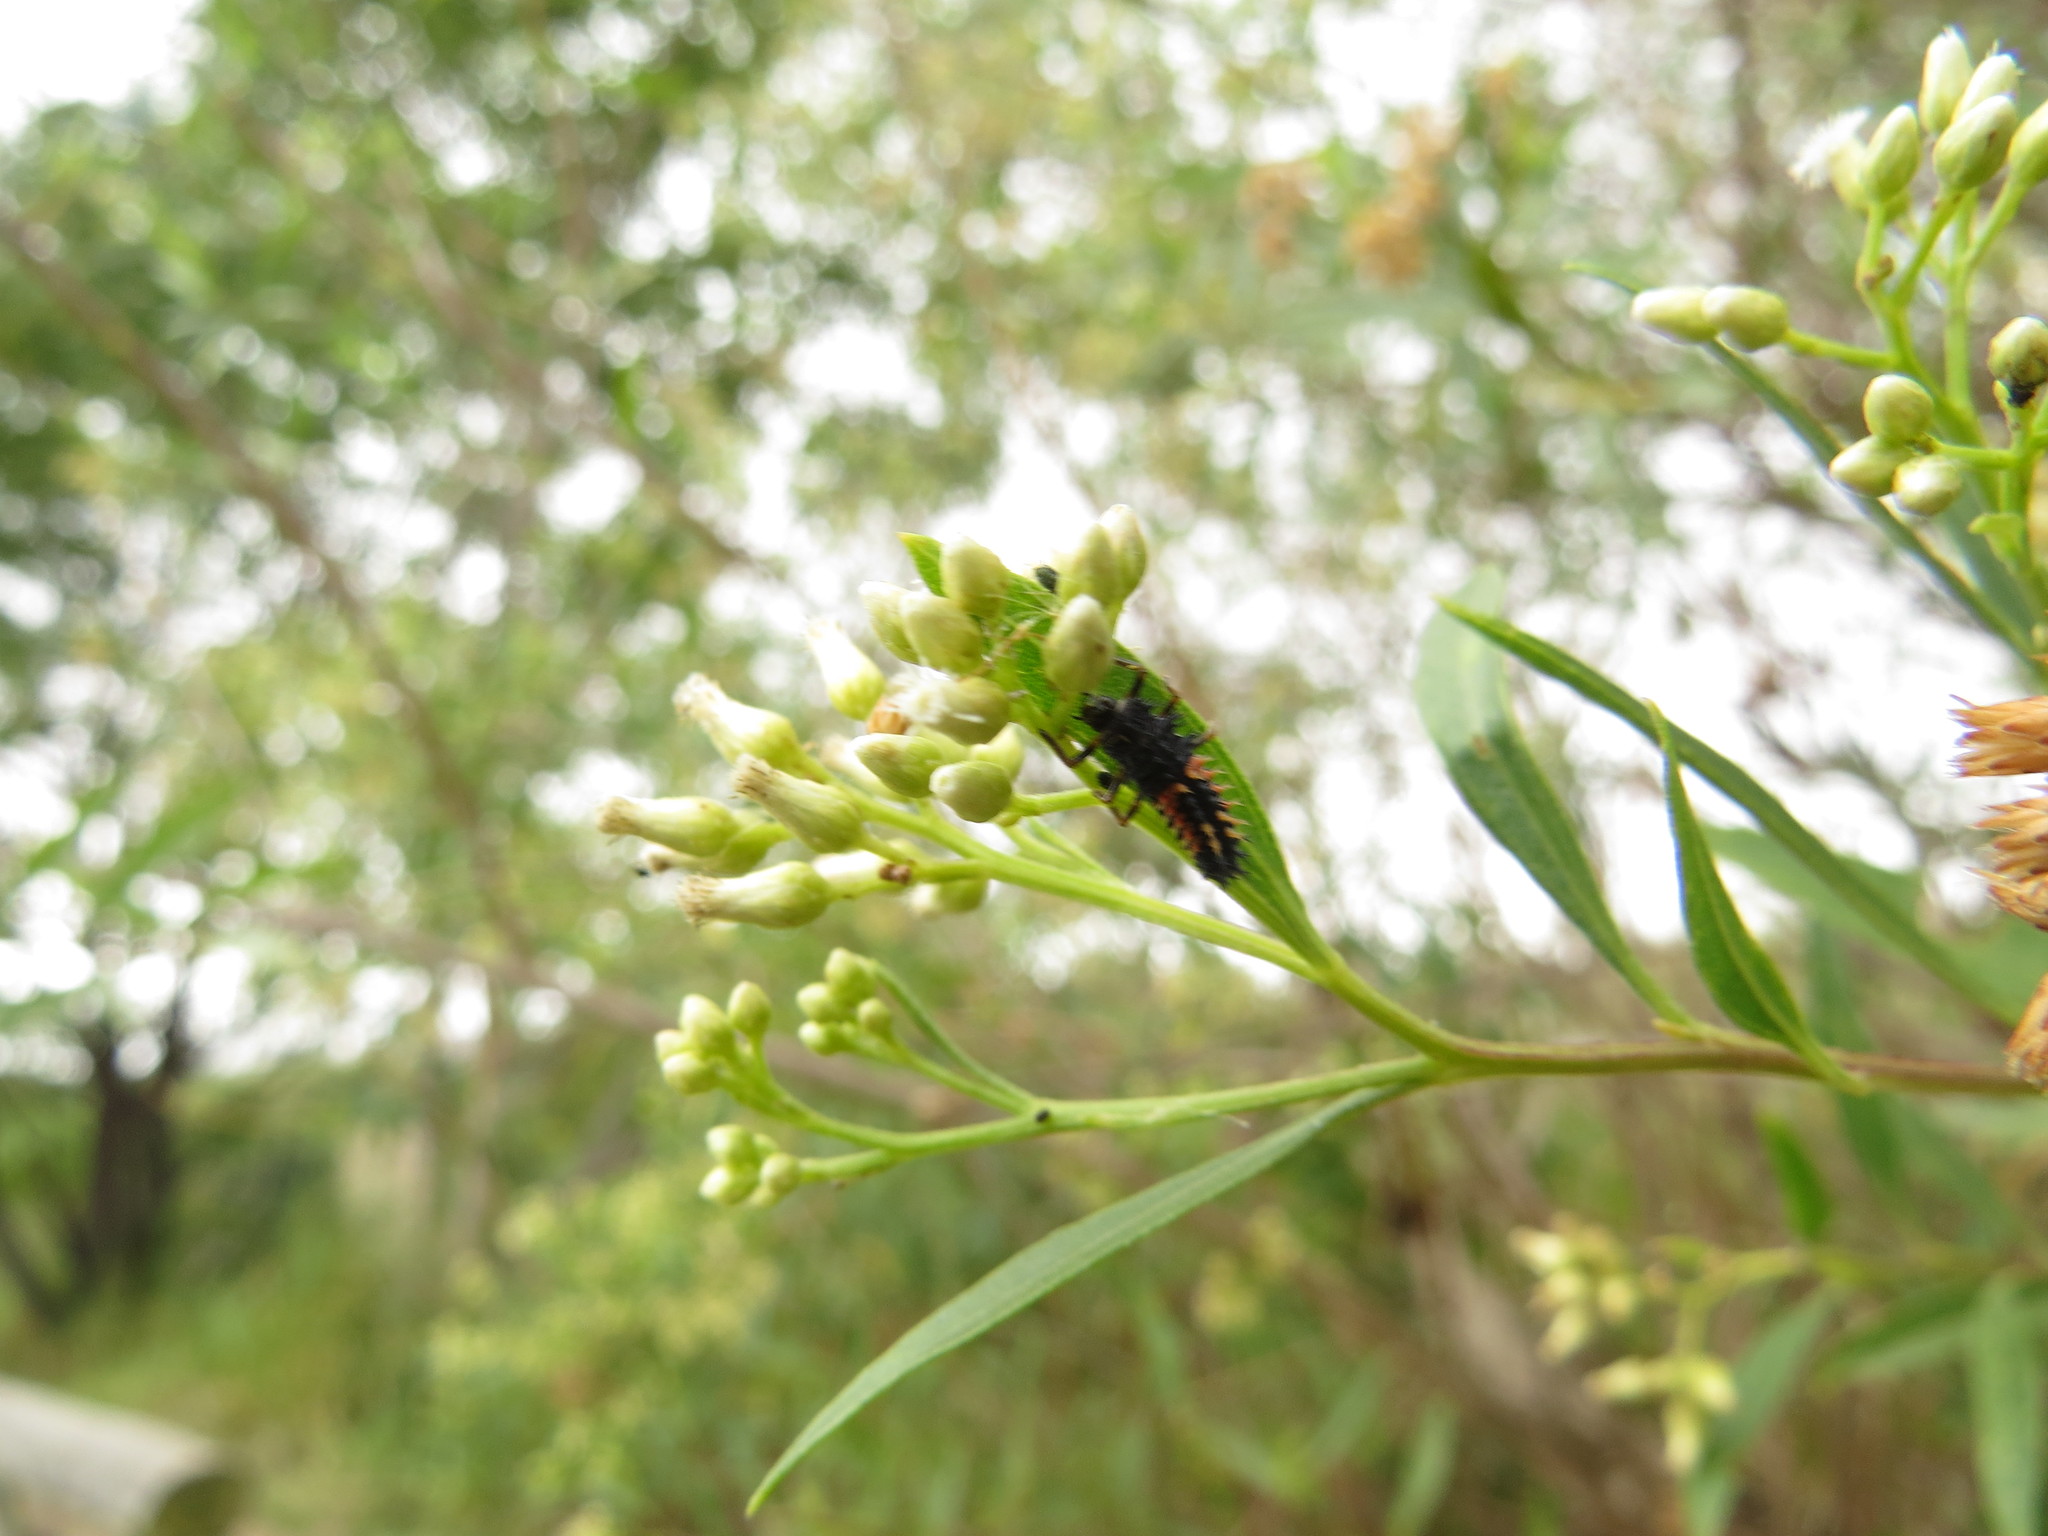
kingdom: Animalia
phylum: Arthropoda
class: Insecta
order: Coleoptera
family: Coccinellidae
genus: Harmonia
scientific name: Harmonia axyridis
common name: Harlequin ladybird
